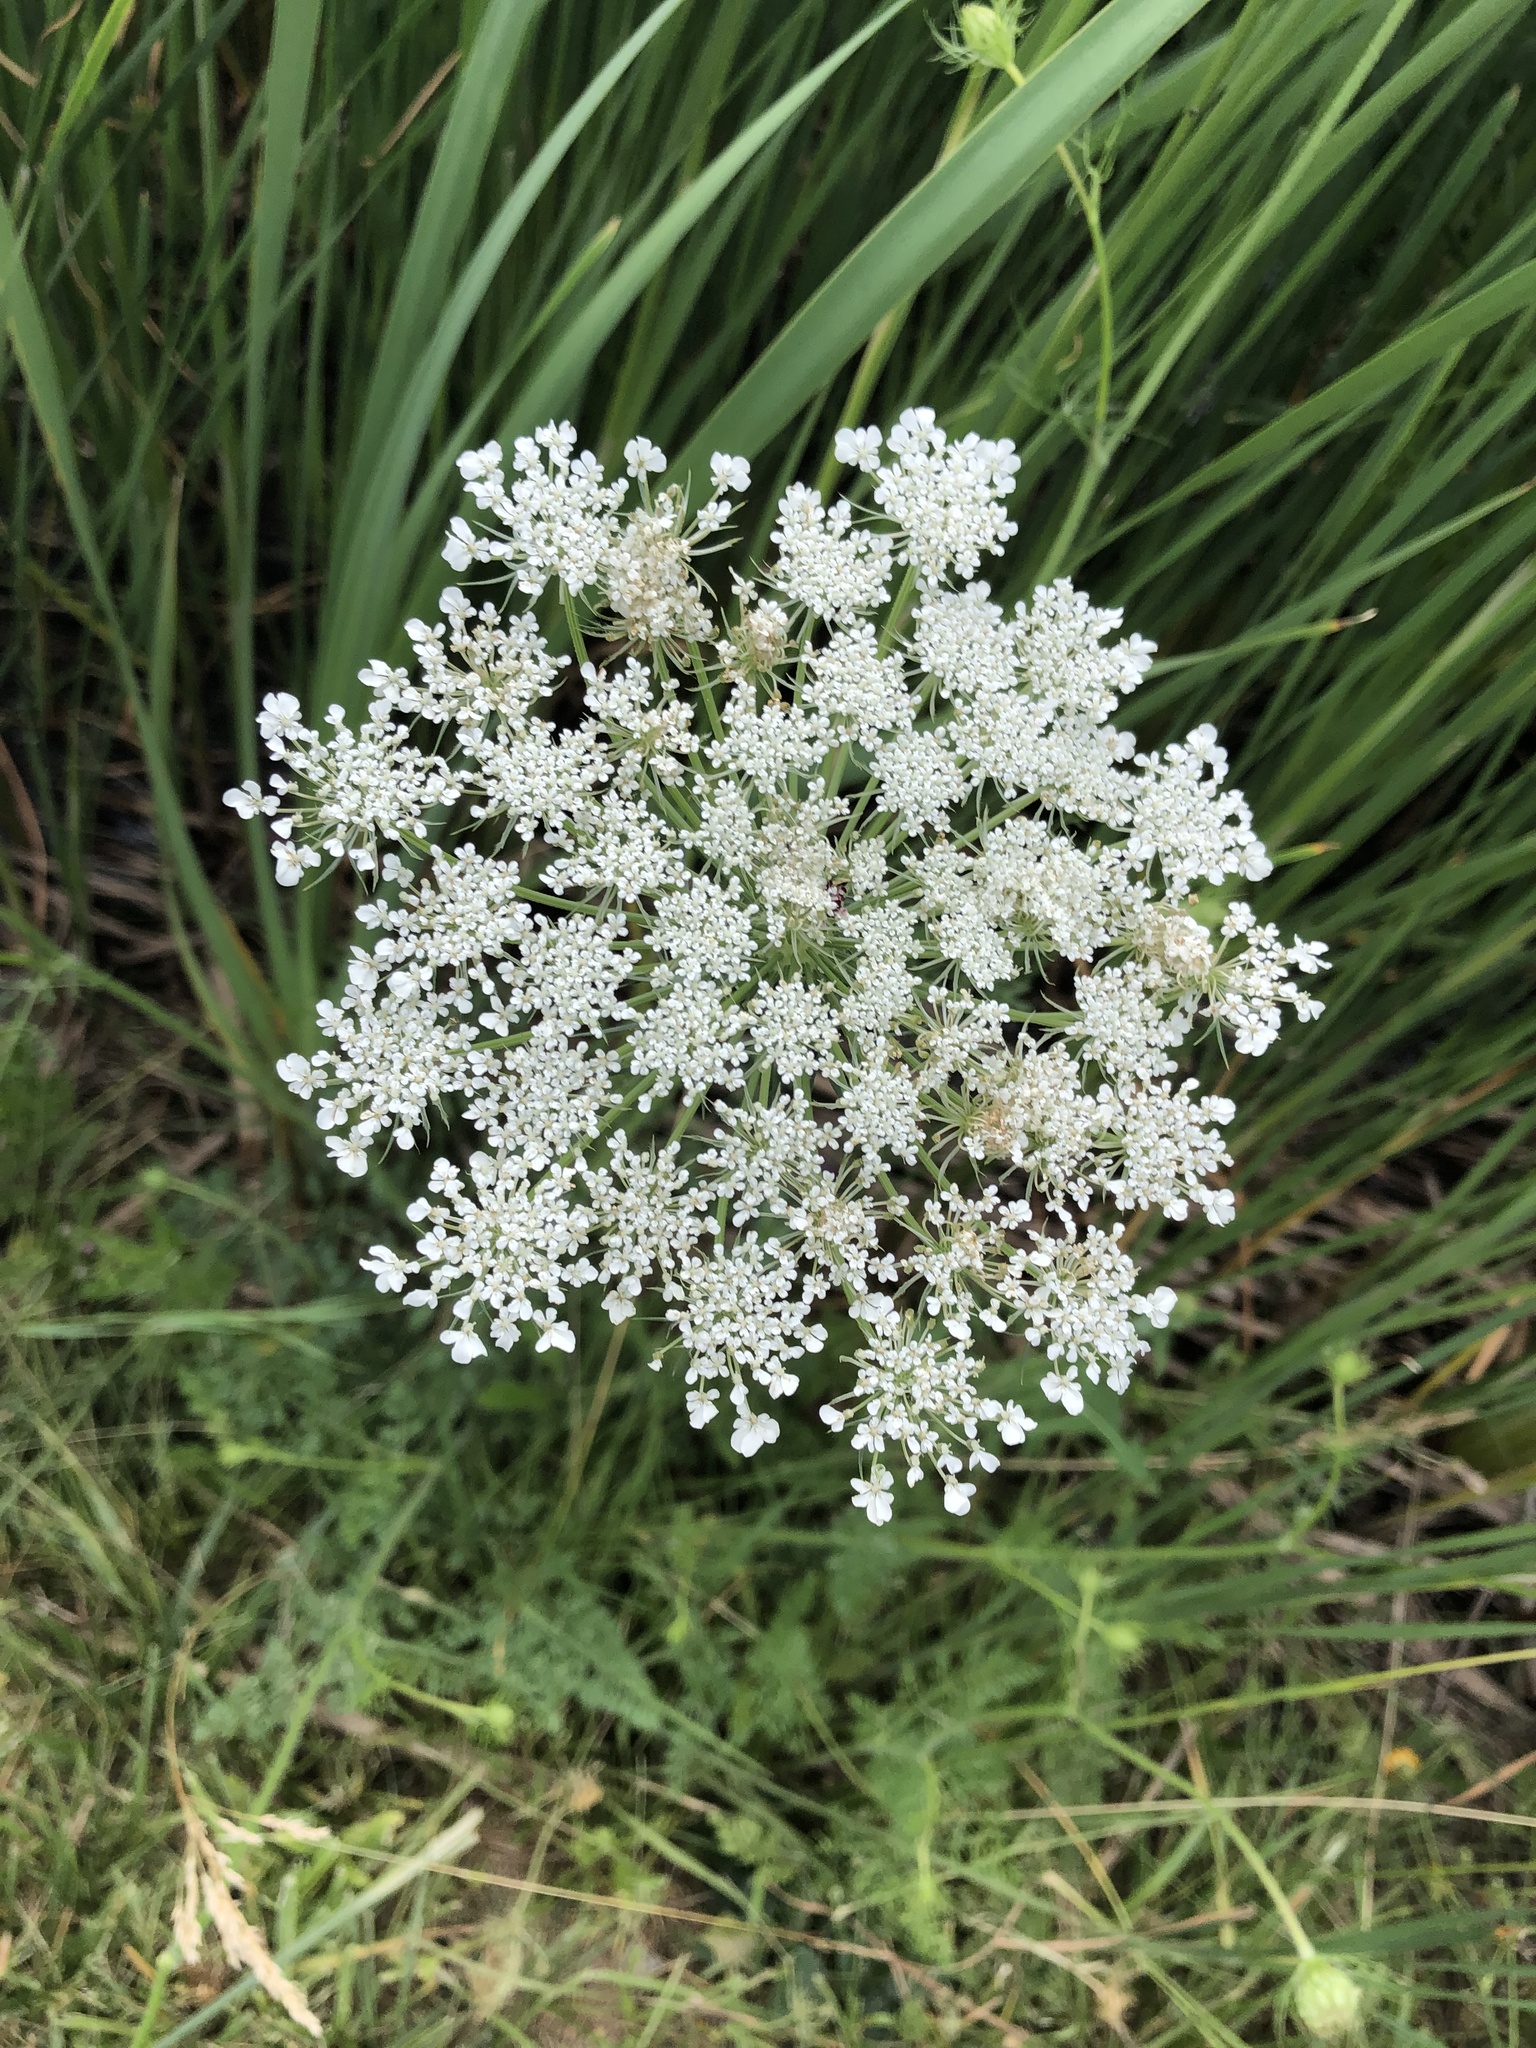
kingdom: Plantae
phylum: Tracheophyta
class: Magnoliopsida
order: Apiales
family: Apiaceae
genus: Daucus
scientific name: Daucus carota
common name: Wild carrot
